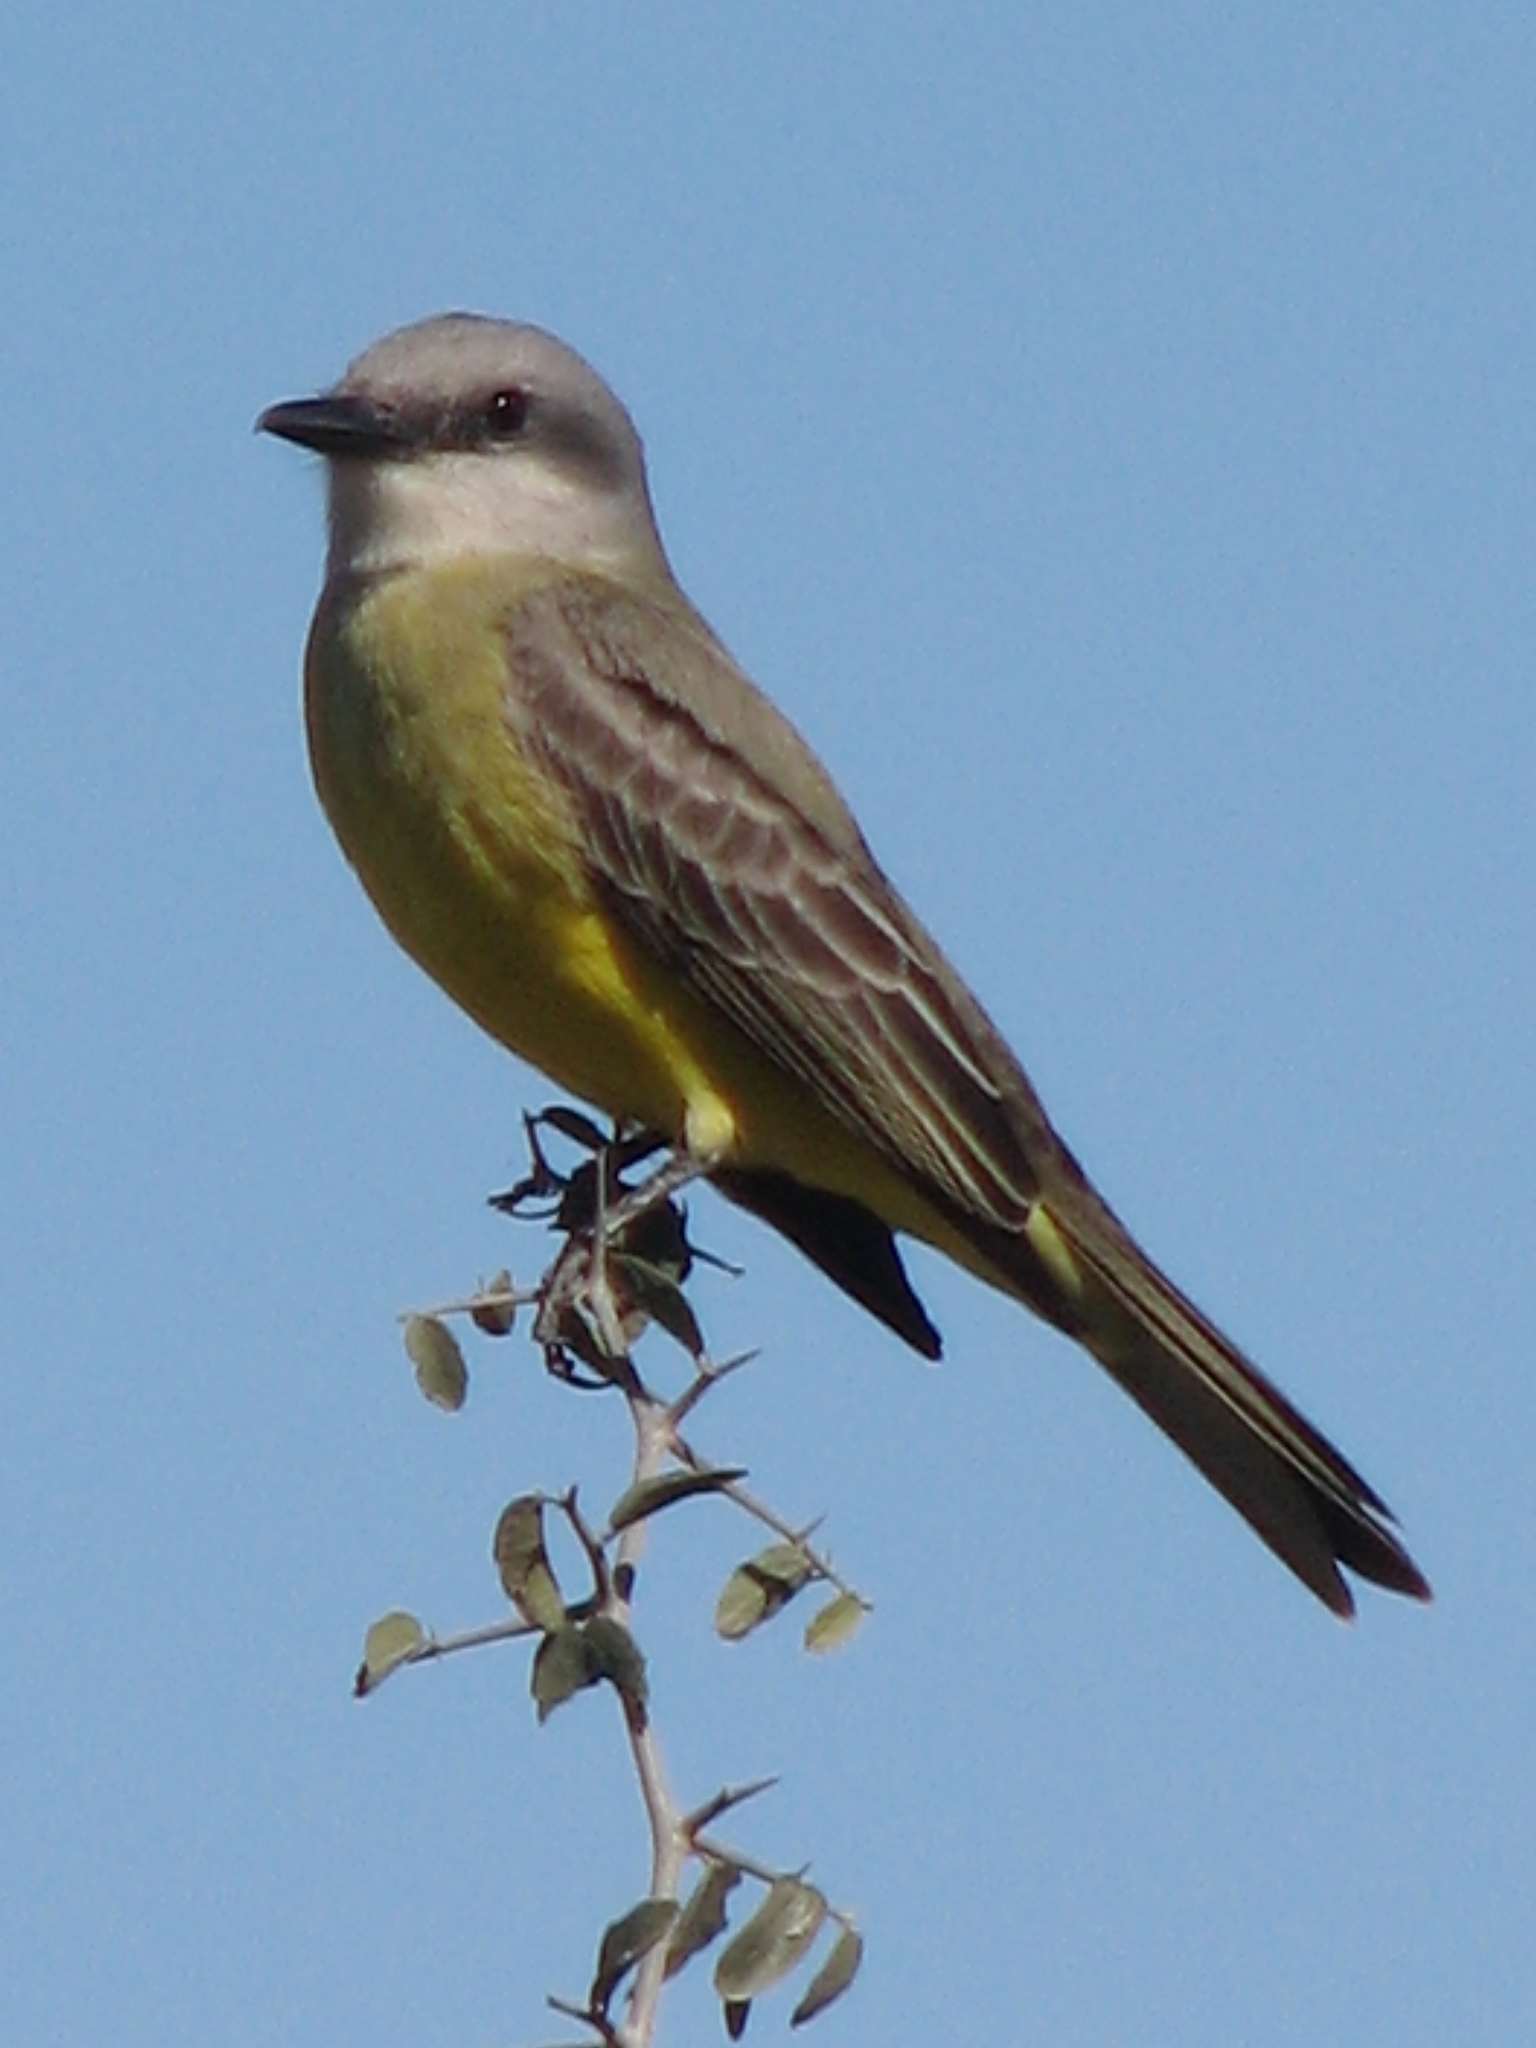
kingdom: Animalia
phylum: Chordata
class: Aves
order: Passeriformes
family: Tyrannidae
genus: Tyrannus
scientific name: Tyrannus melancholicus
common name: Tropical kingbird
